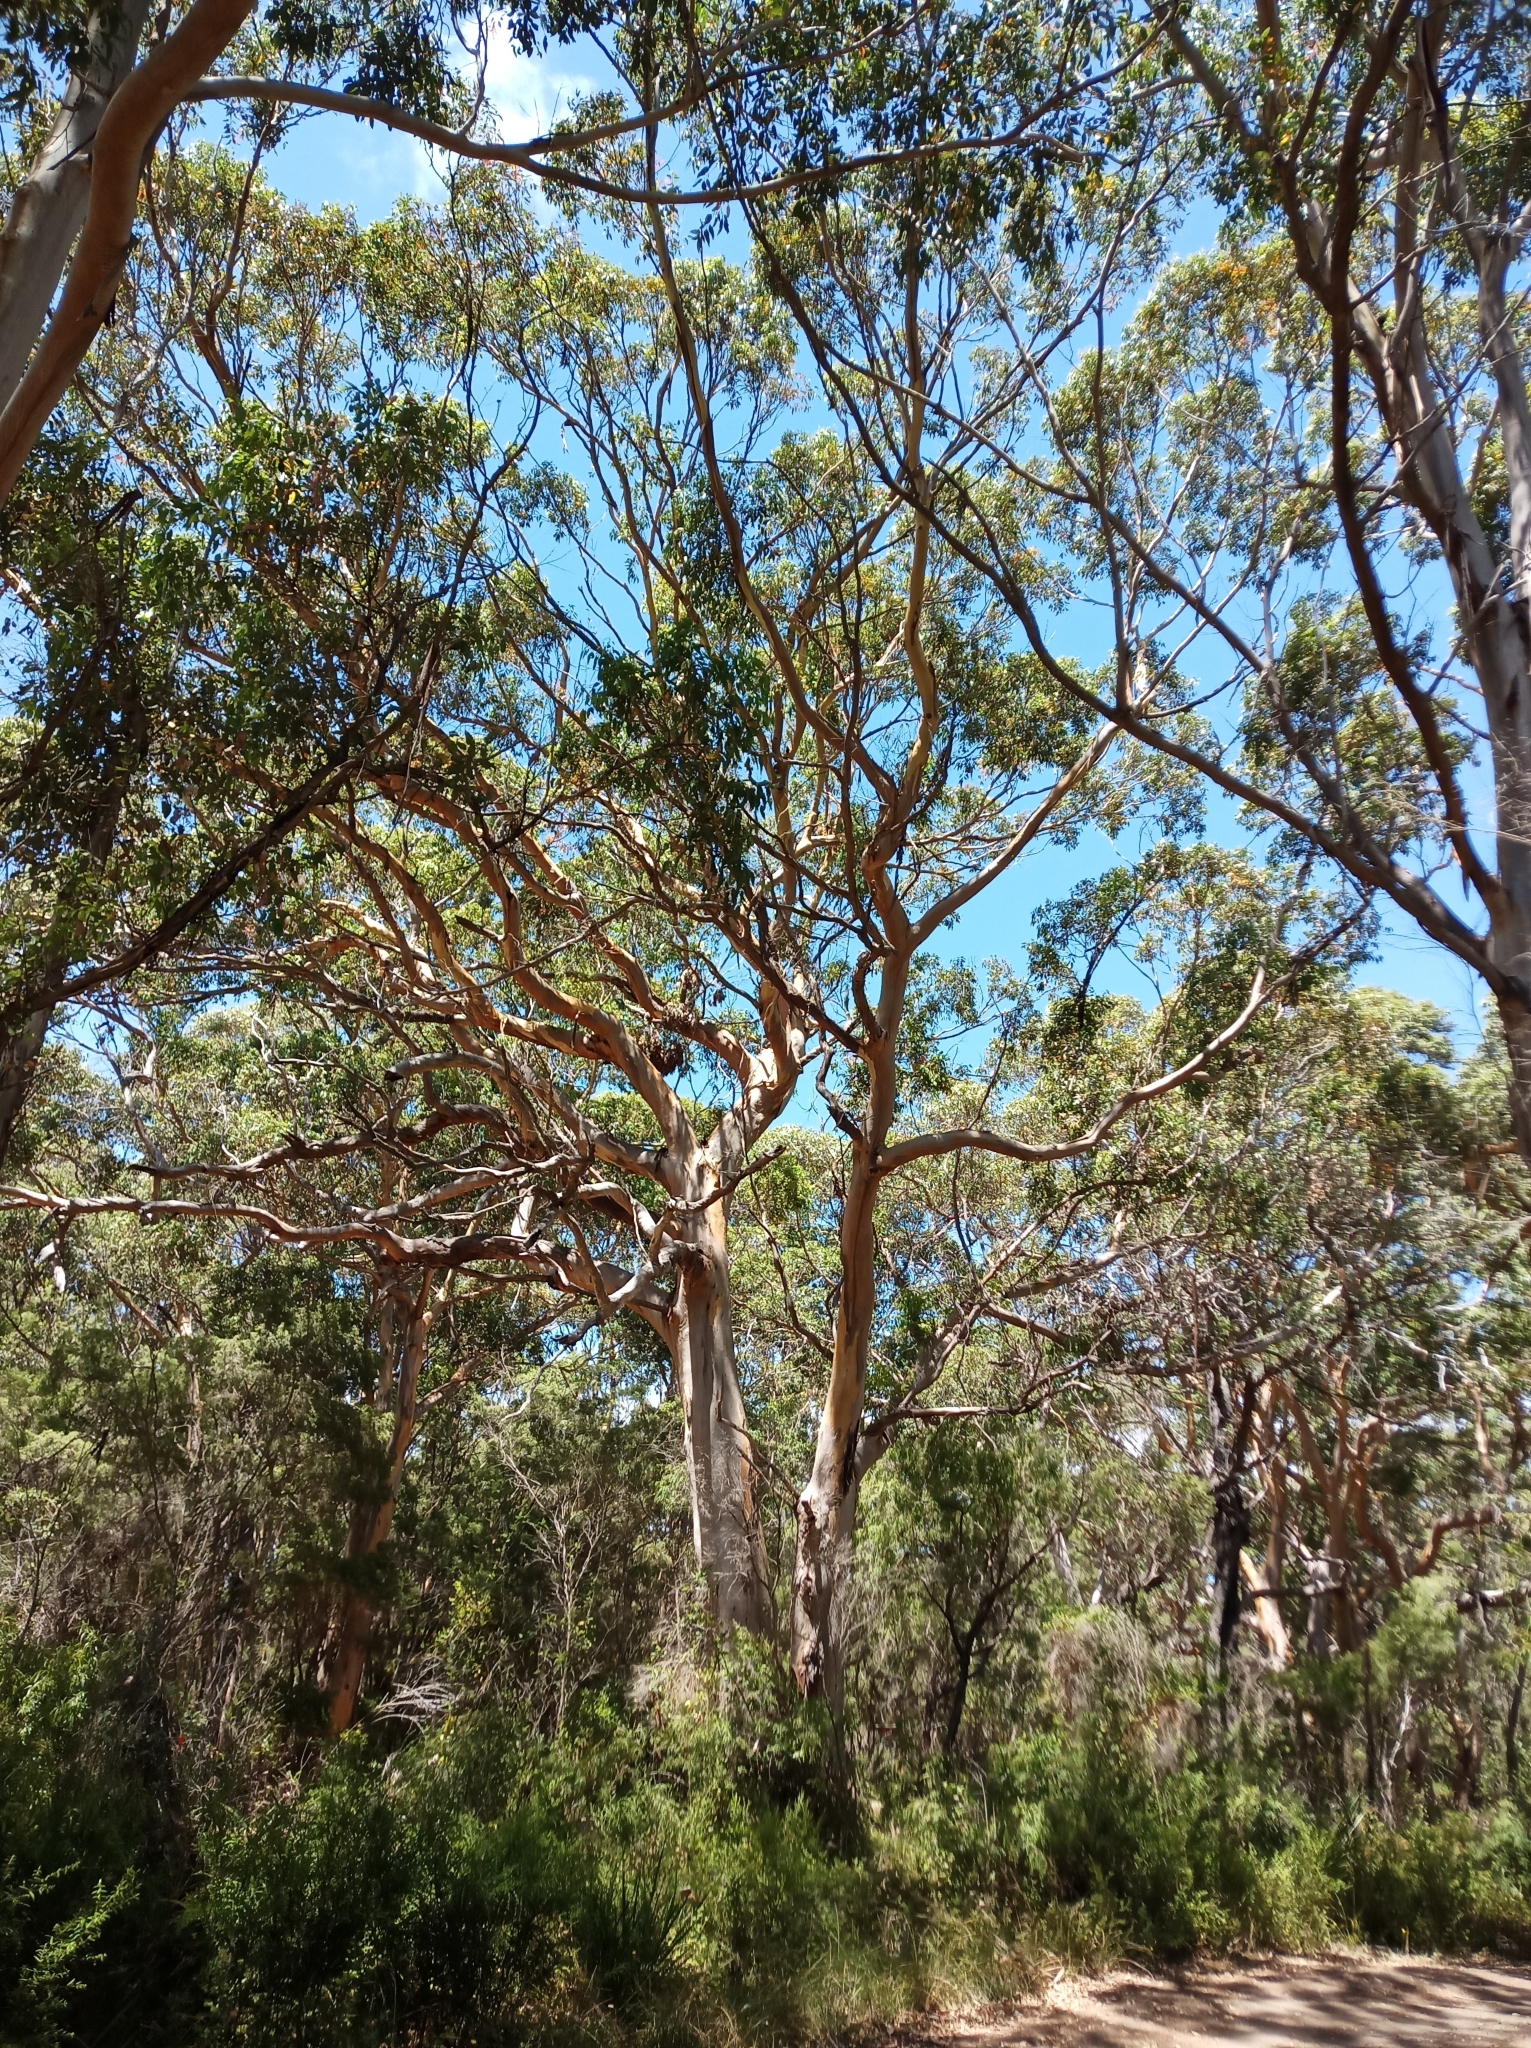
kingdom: Plantae
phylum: Tracheophyta
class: Magnoliopsida
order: Myrtales
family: Myrtaceae
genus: Eucalyptus
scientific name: Eucalyptus diversicolor
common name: Karri
